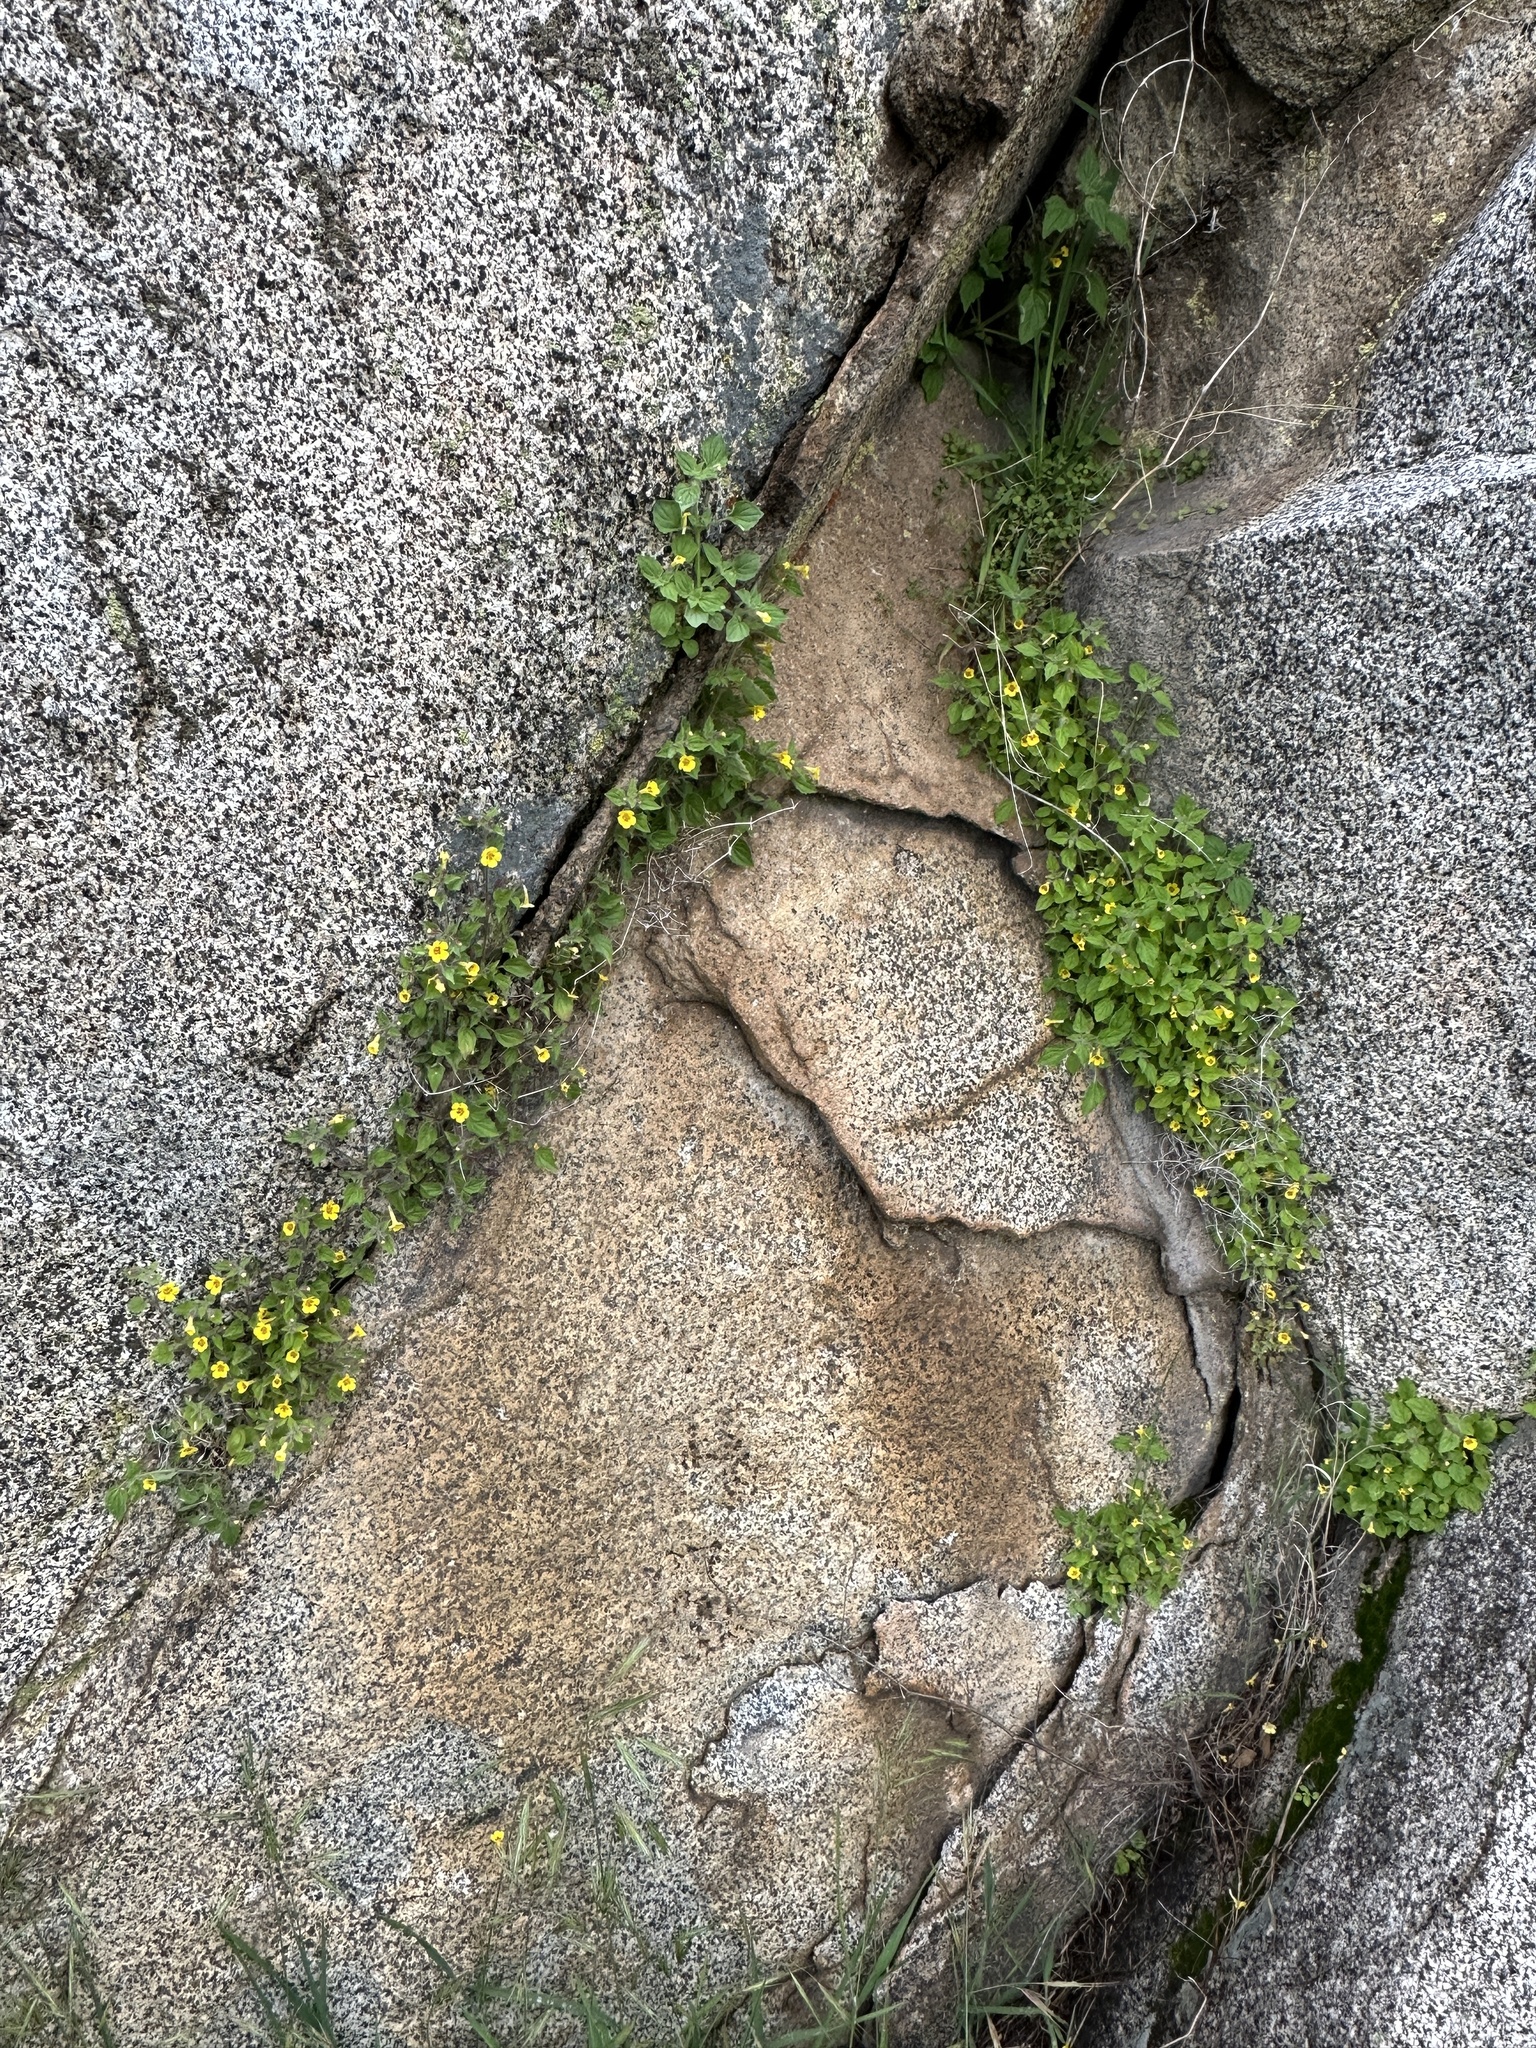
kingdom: Plantae
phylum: Tracheophyta
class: Magnoliopsida
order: Lamiales
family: Phrymaceae
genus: Erythranthe
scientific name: Erythranthe geniculata
